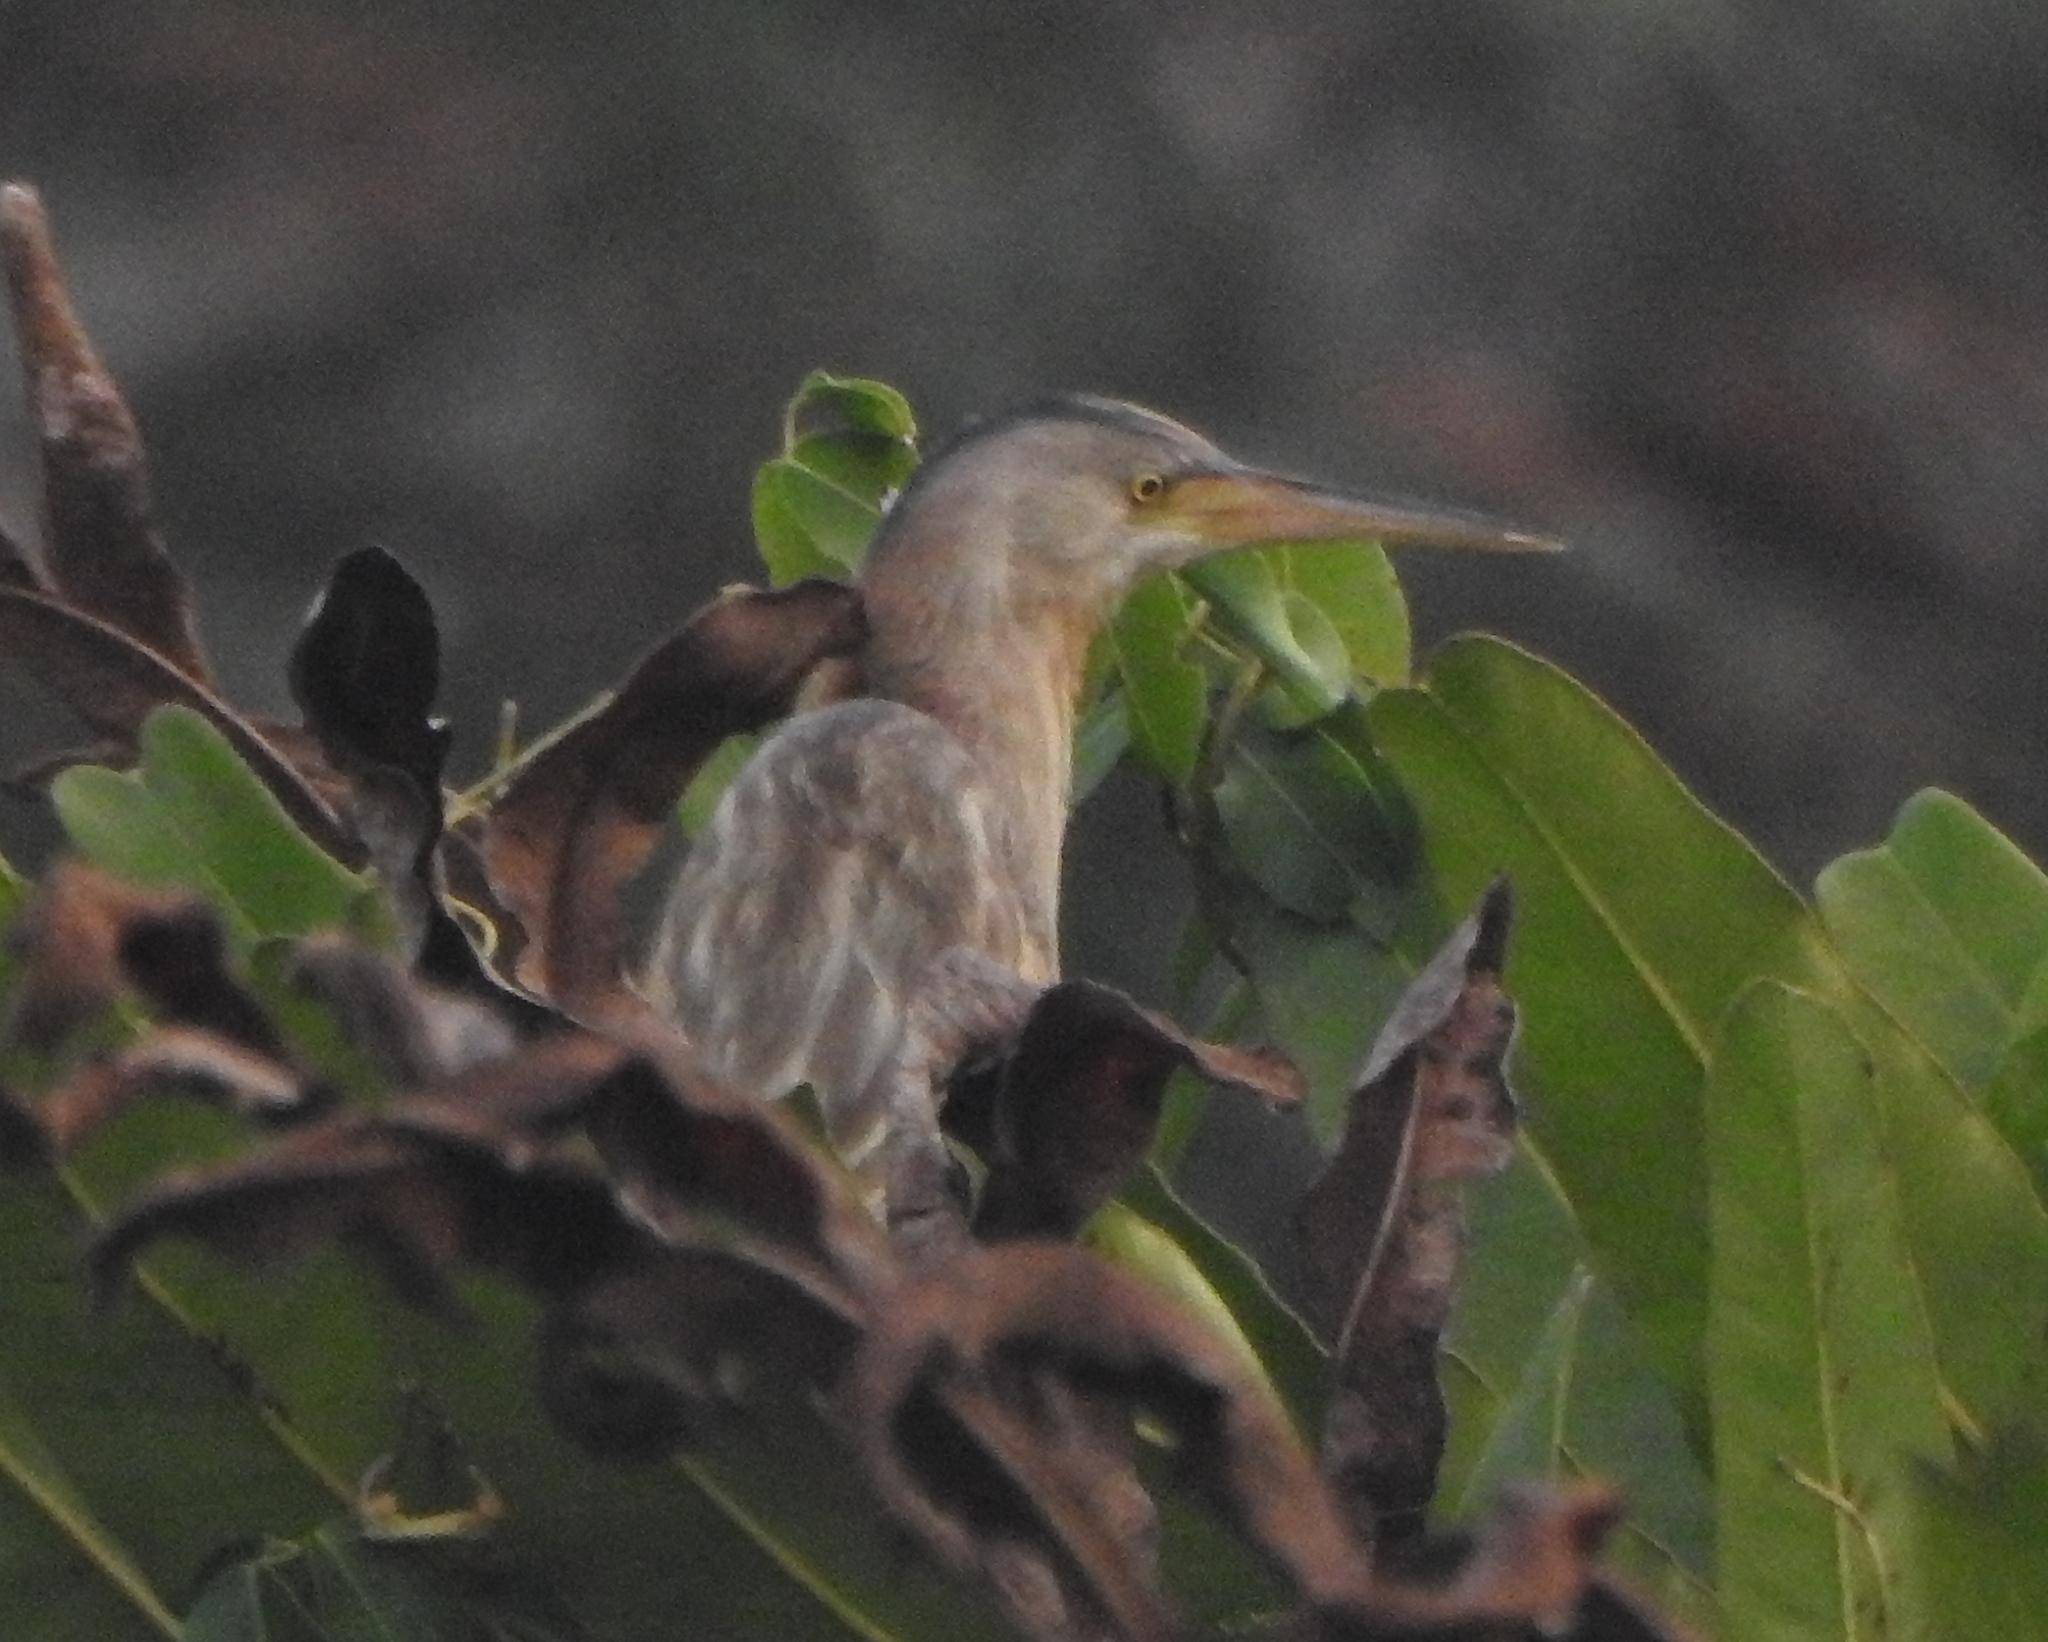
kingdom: Animalia
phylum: Chordata
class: Aves
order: Pelecaniformes
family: Ardeidae
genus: Ixobrychus
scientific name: Ixobrychus sinensis
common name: Yellow bittern
